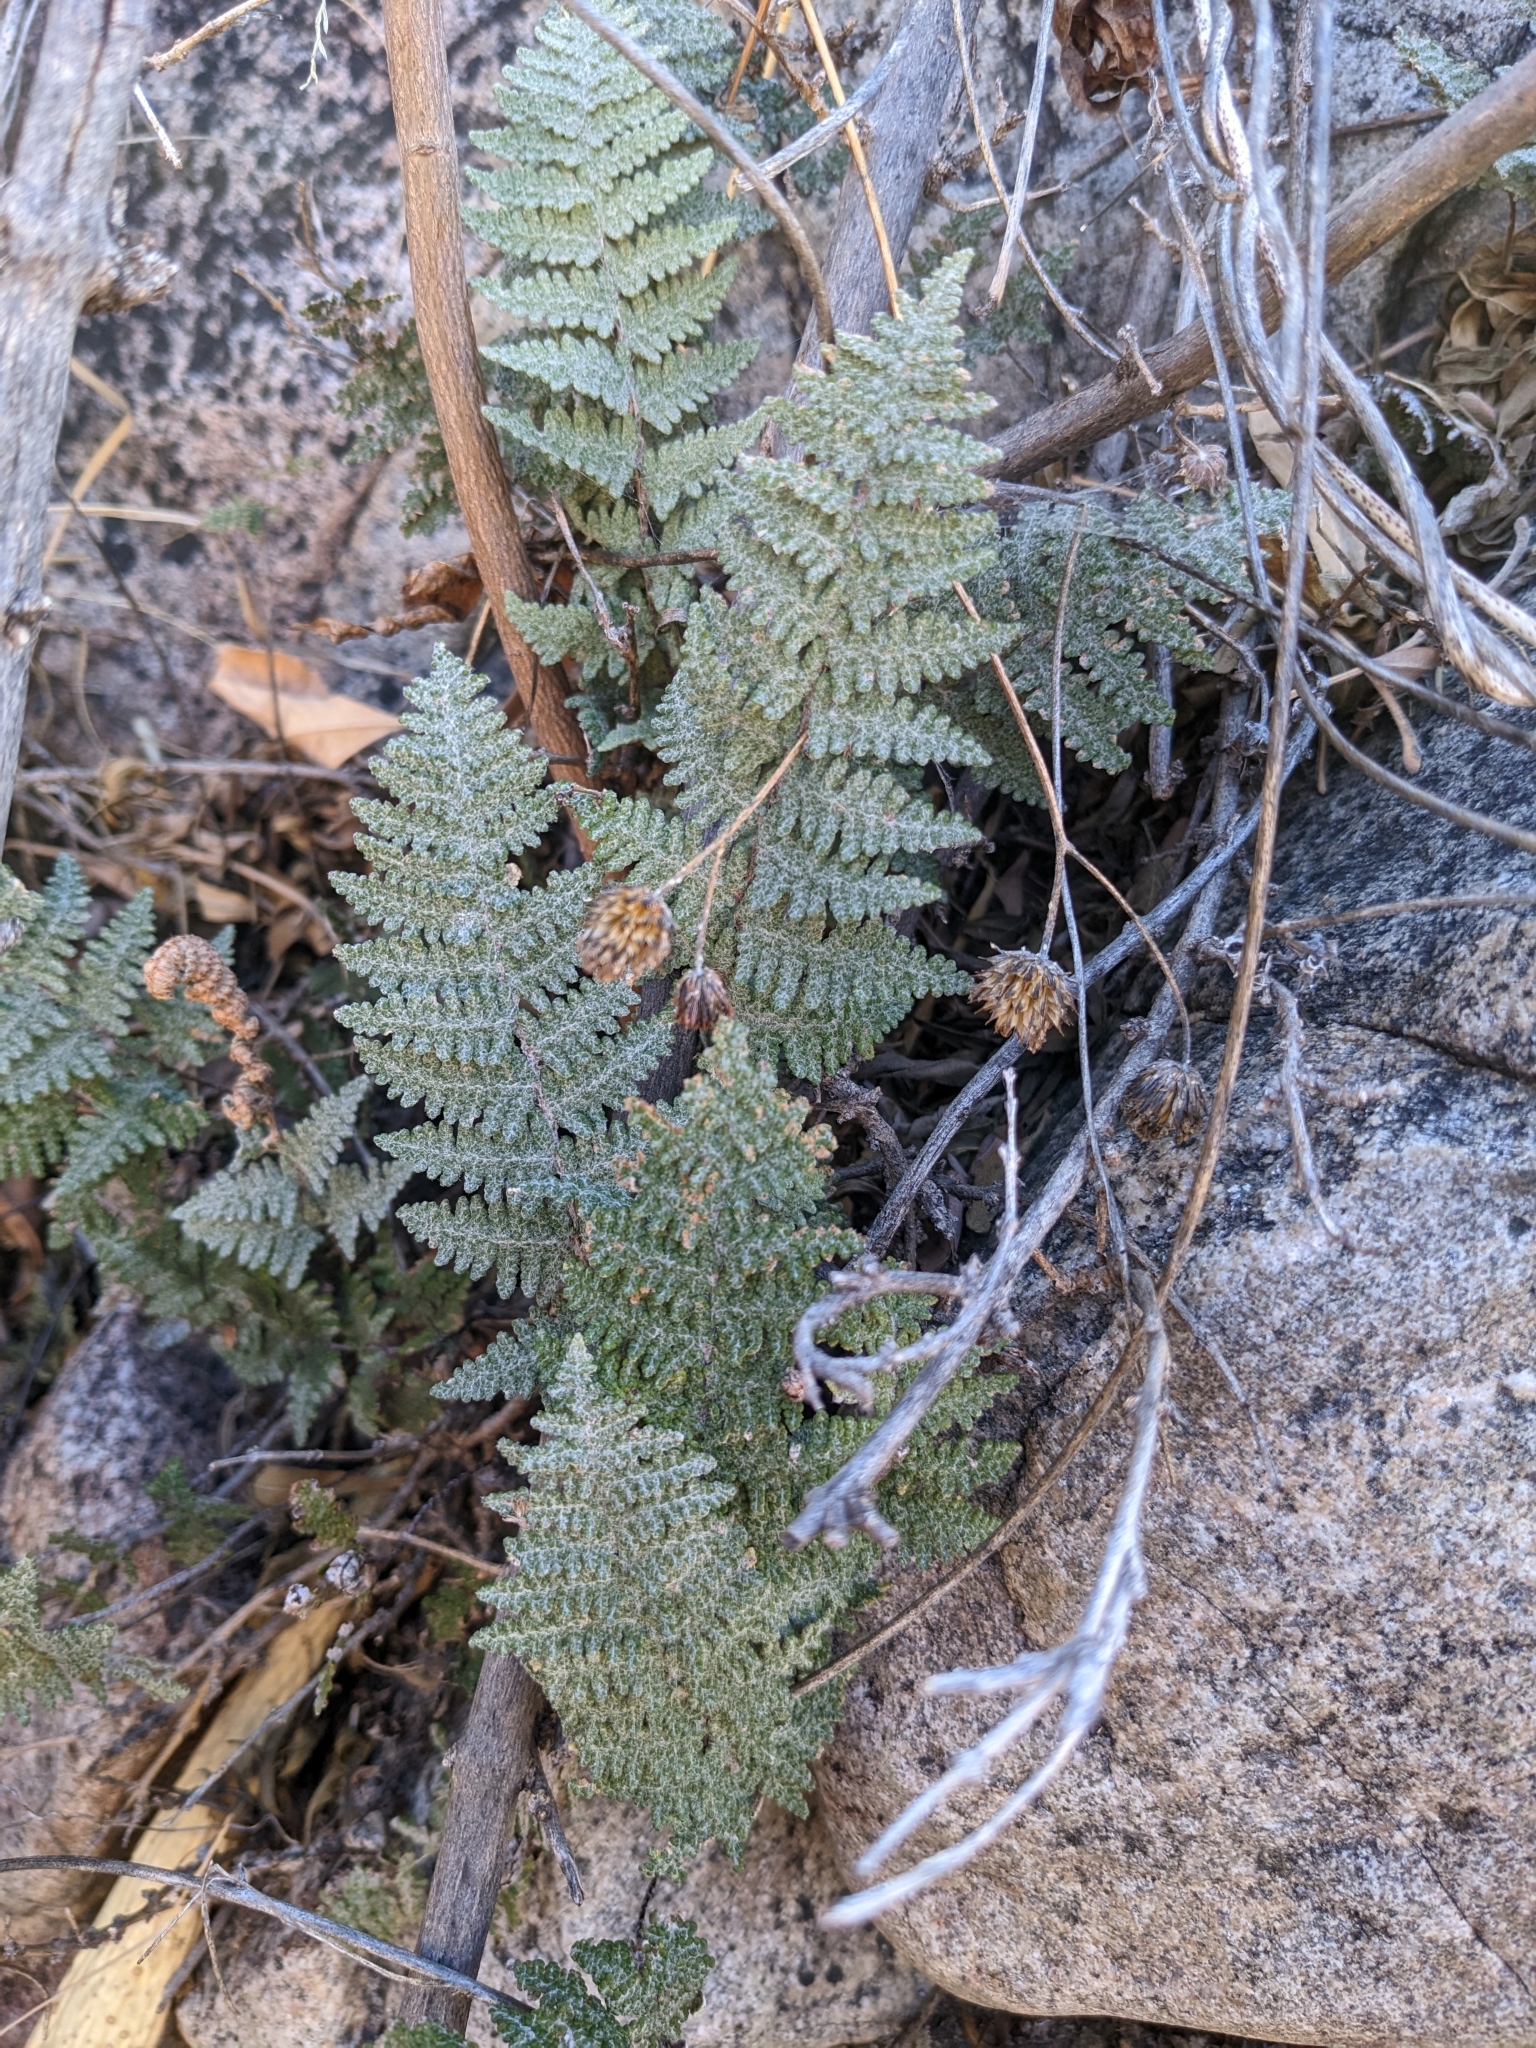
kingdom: Plantae
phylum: Tracheophyta
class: Polypodiopsida
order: Polypodiales
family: Pteridaceae
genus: Myriopteris
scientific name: Myriopteris lindheimeri
